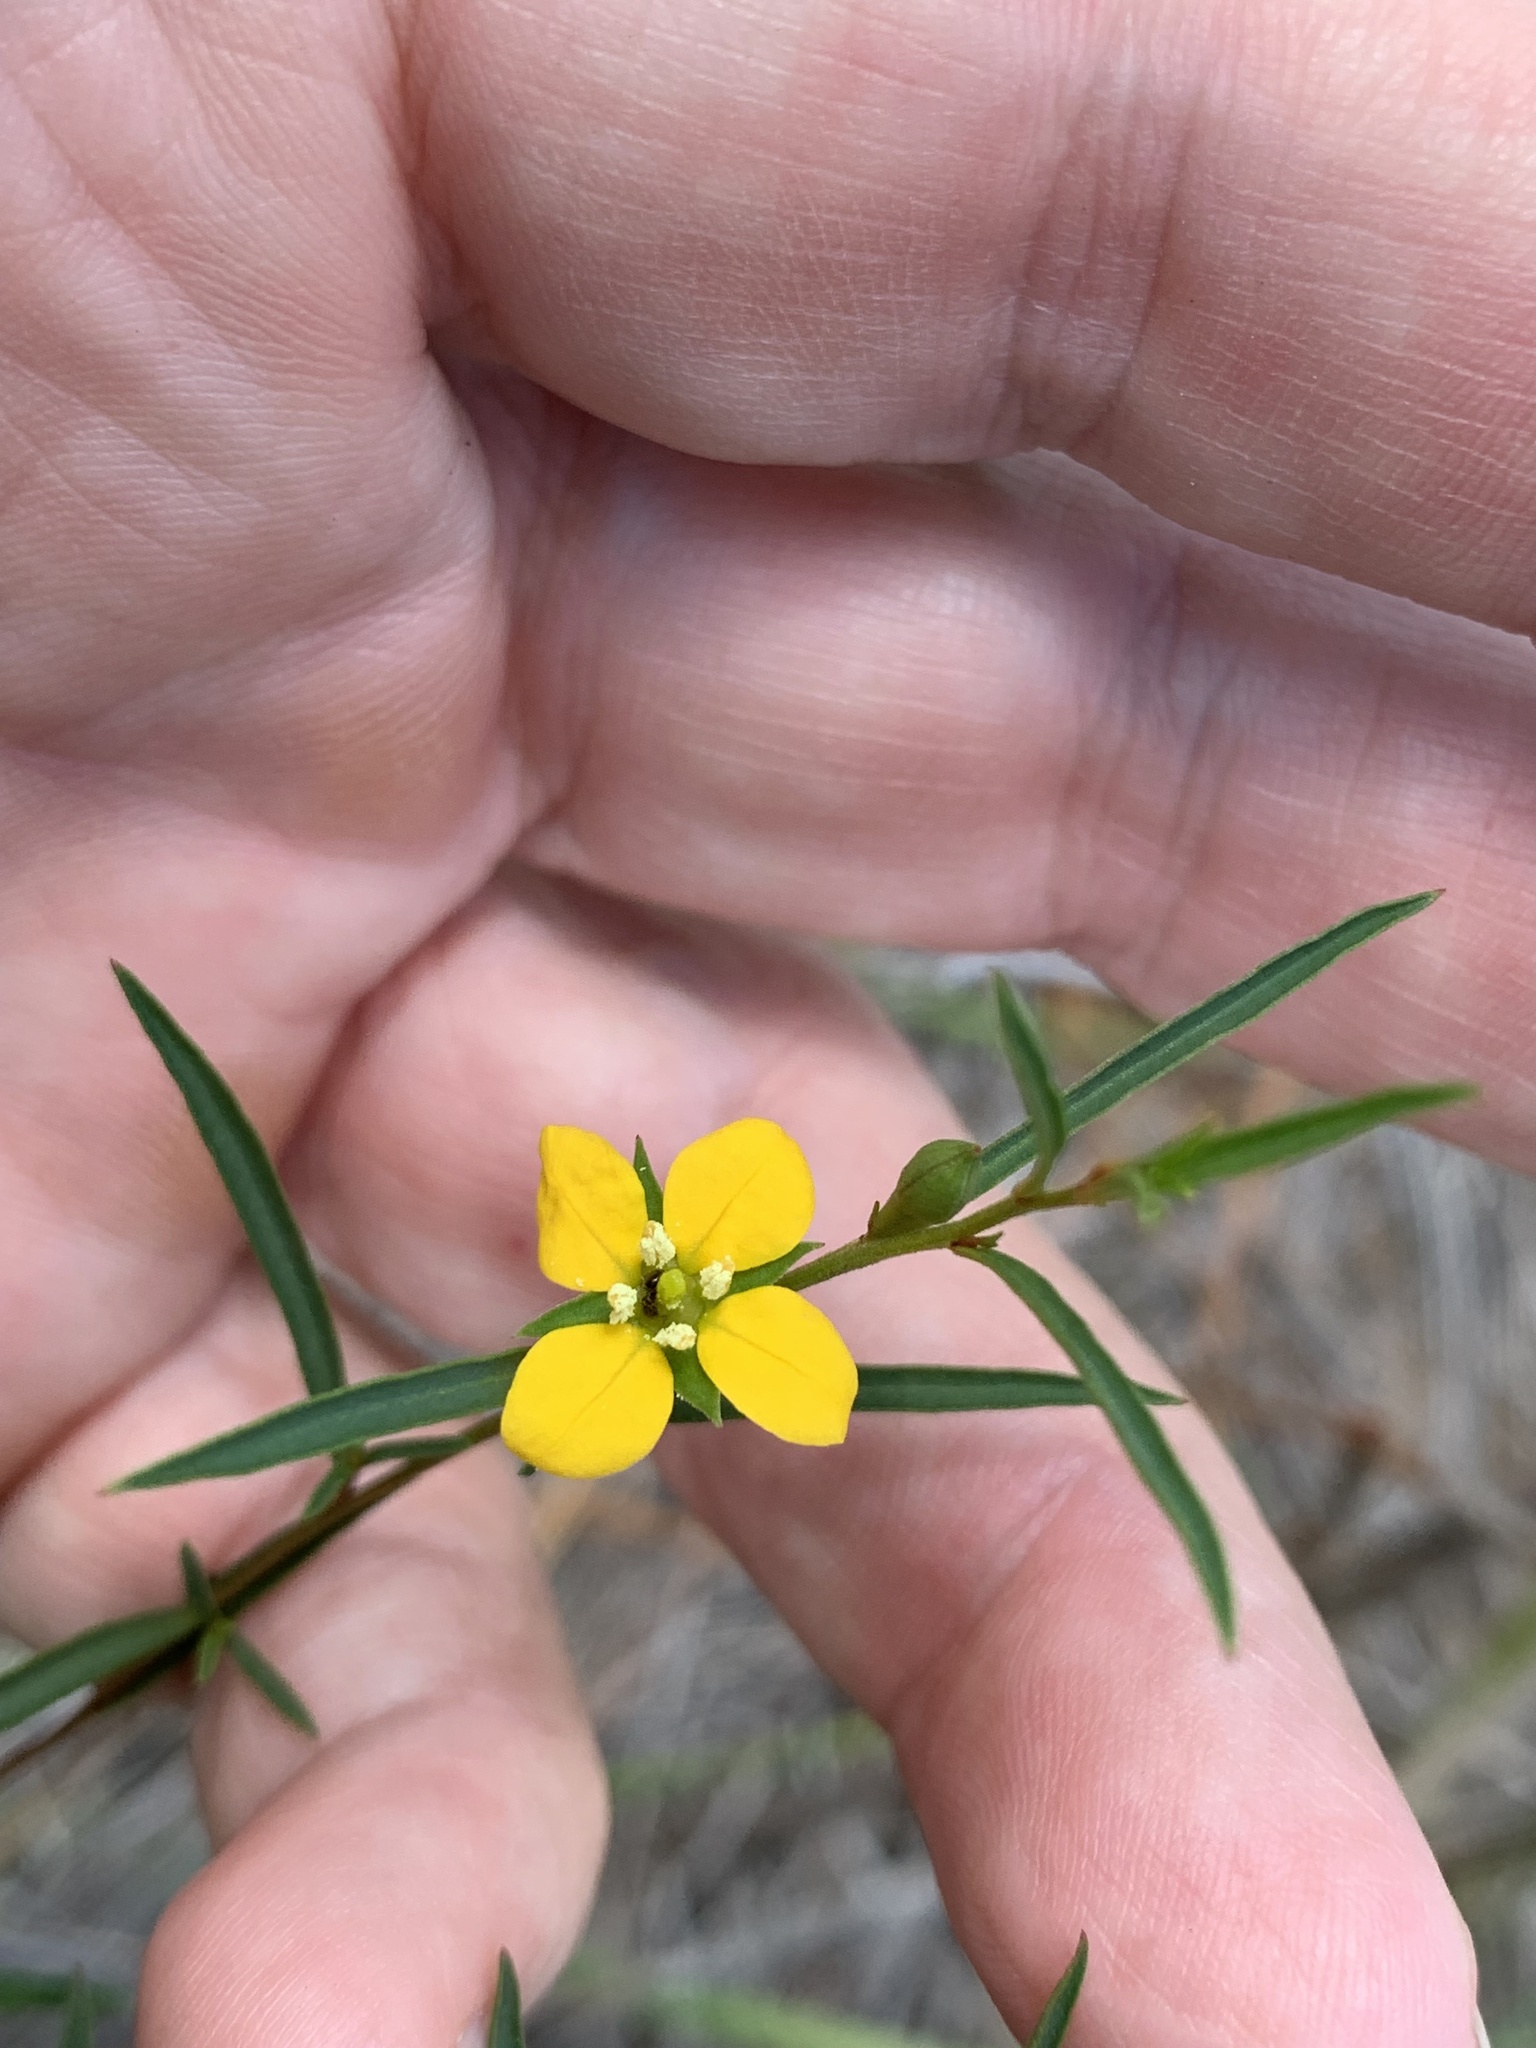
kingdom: Plantae
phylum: Tracheophyta
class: Magnoliopsida
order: Myrtales
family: Onagraceae
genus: Ludwigia
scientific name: Ludwigia linearis
